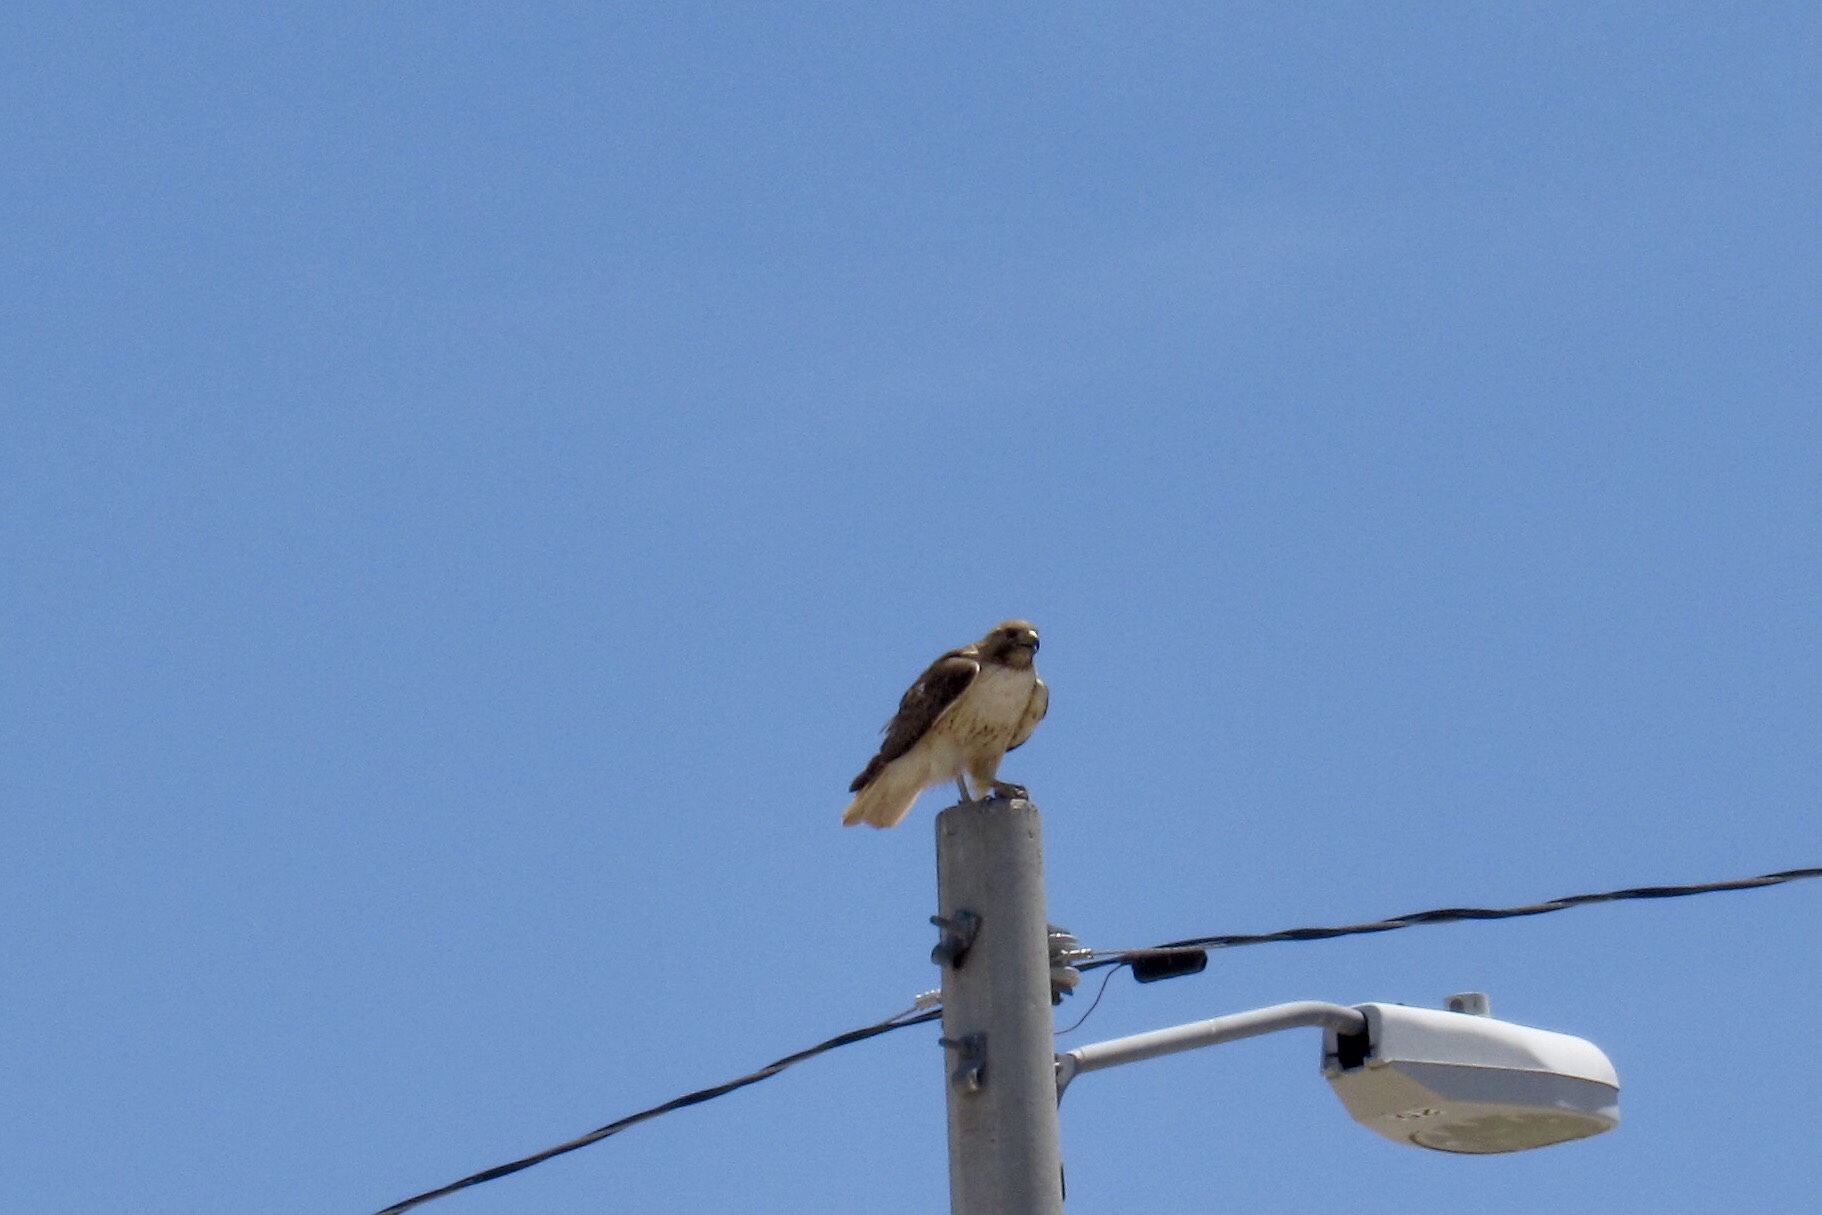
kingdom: Animalia
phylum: Chordata
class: Aves
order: Accipitriformes
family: Accipitridae
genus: Buteo
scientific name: Buteo jamaicensis
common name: Red-tailed hawk
